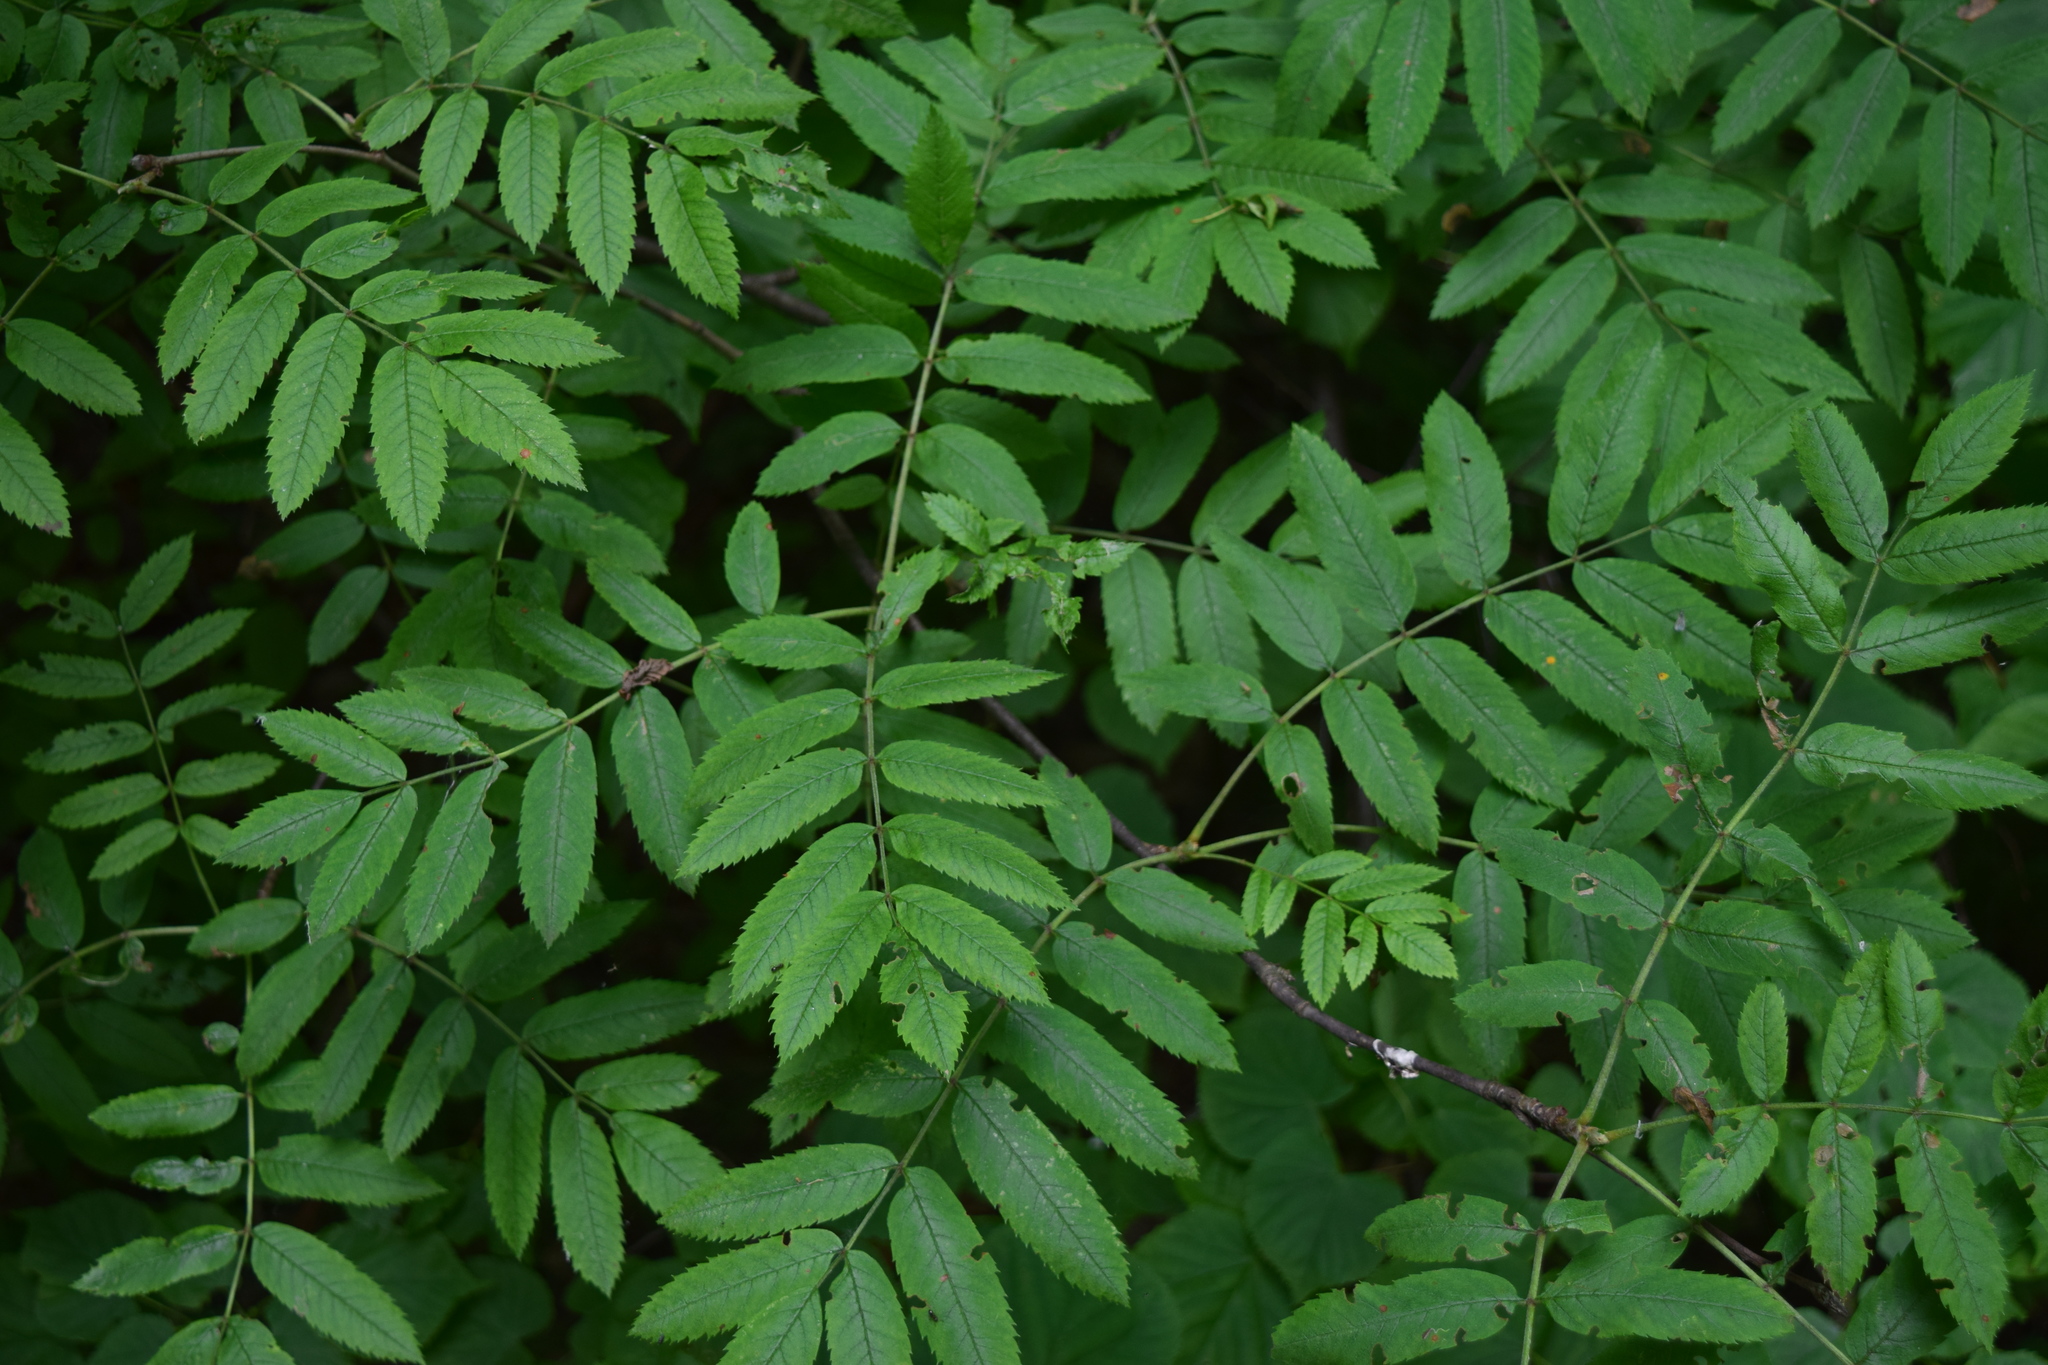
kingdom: Plantae
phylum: Tracheophyta
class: Magnoliopsida
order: Rosales
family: Rosaceae
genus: Sorbus
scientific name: Sorbus aucuparia
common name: Rowan
